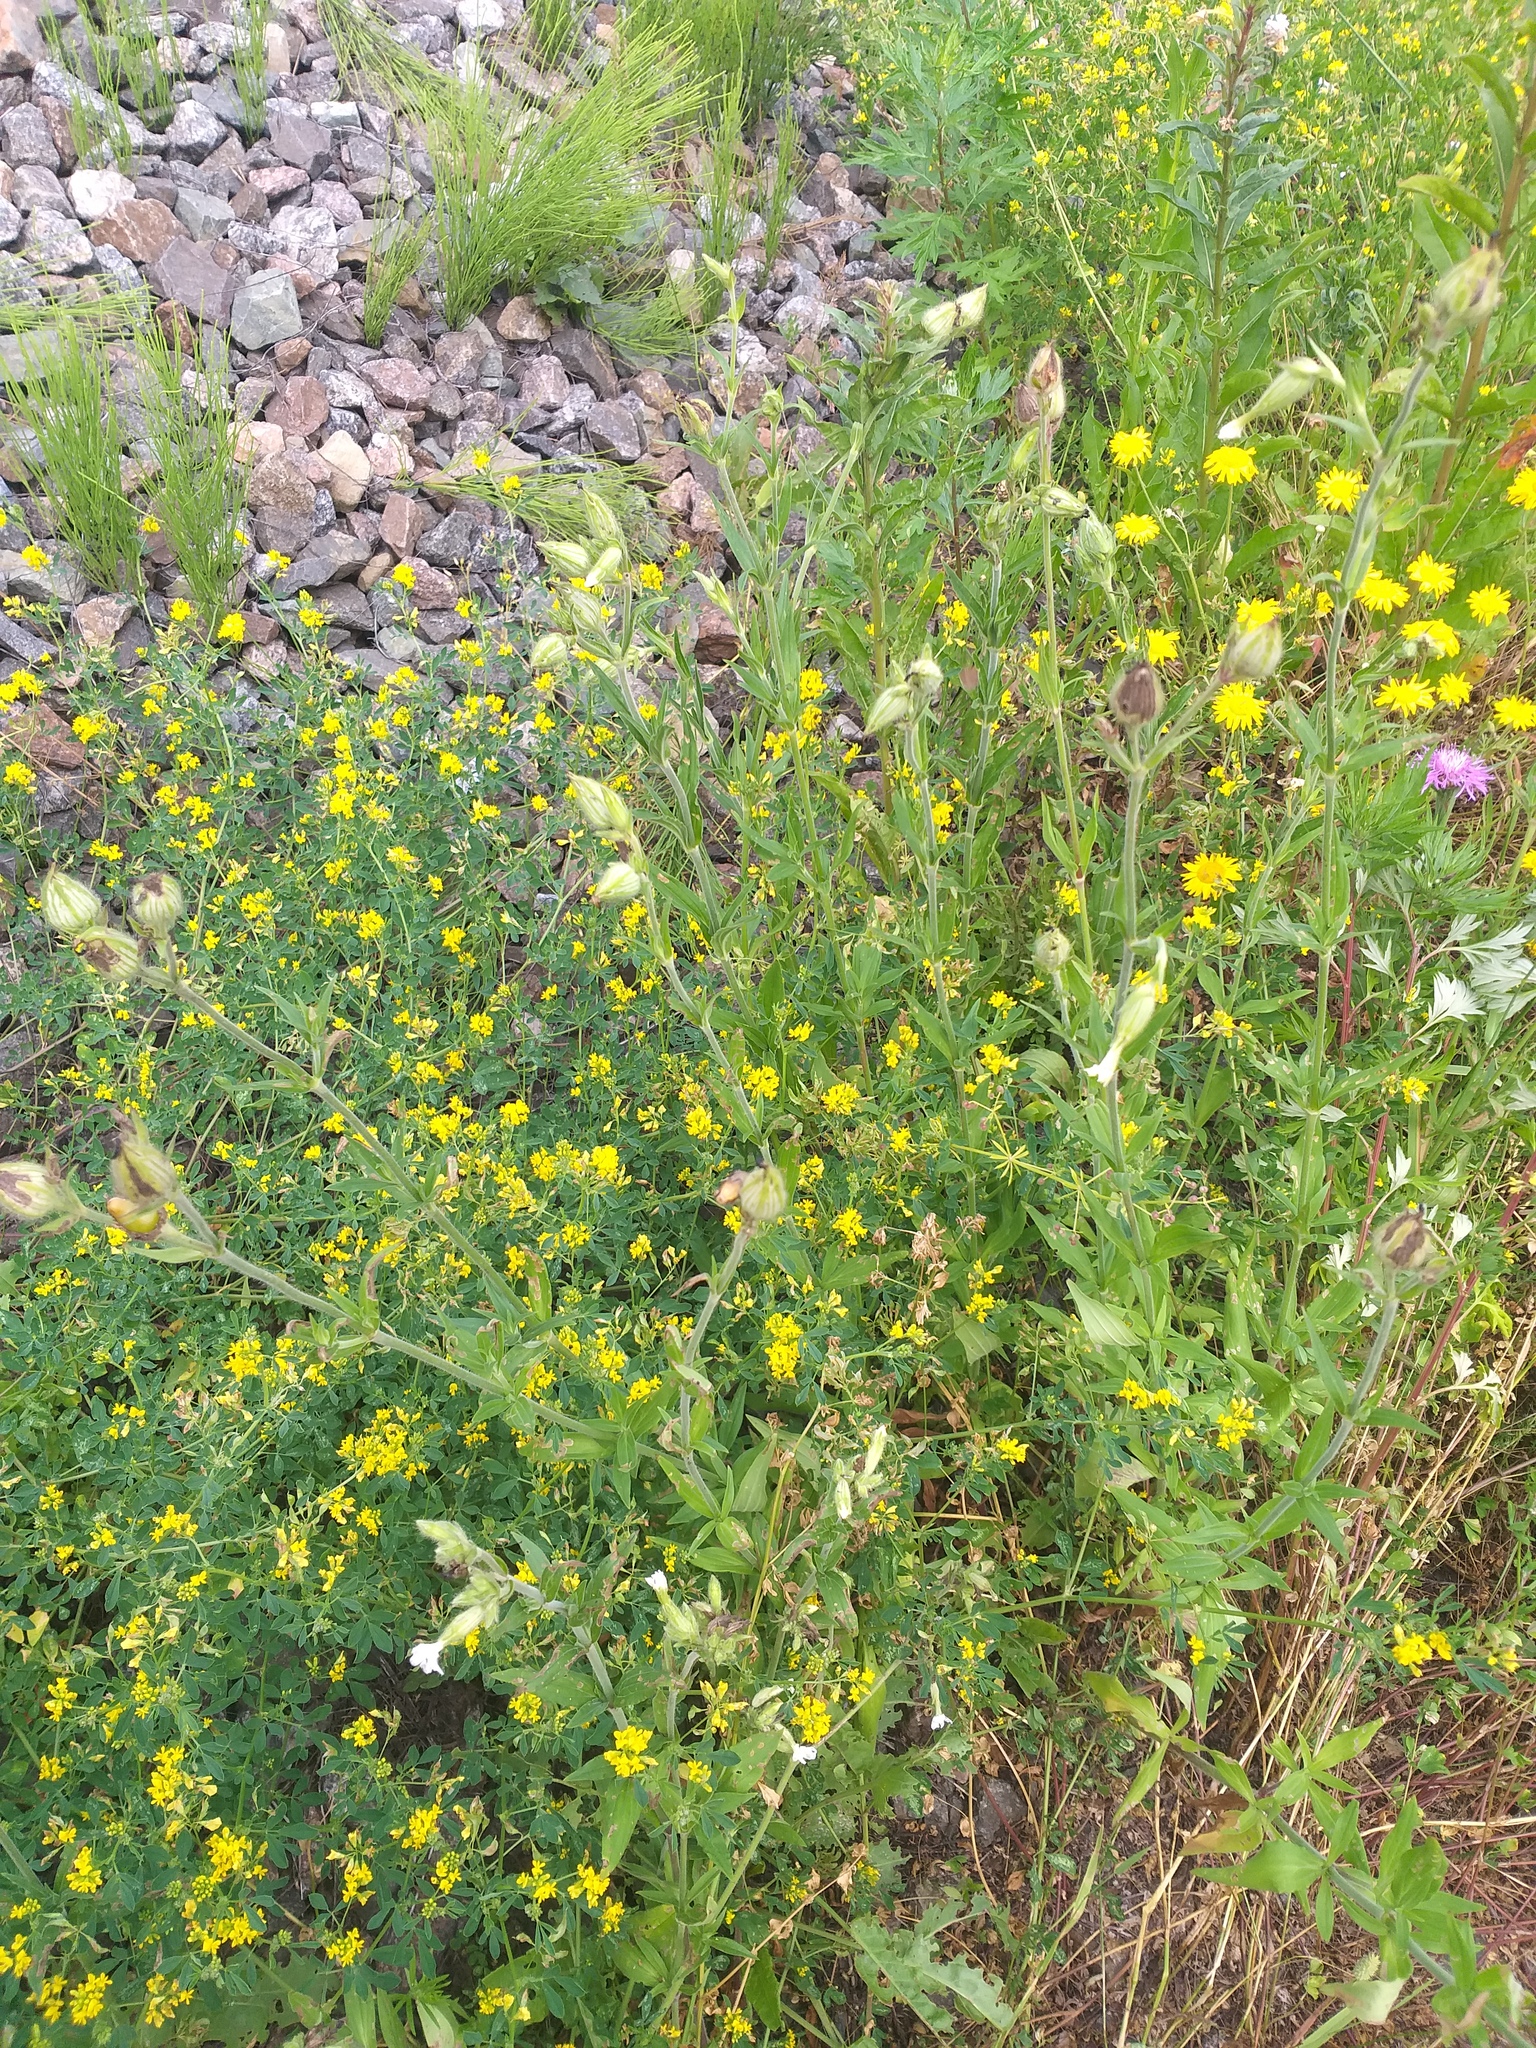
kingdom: Plantae
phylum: Tracheophyta
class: Magnoliopsida
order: Caryophyllales
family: Caryophyllaceae
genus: Silene
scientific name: Silene latifolia
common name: White campion
